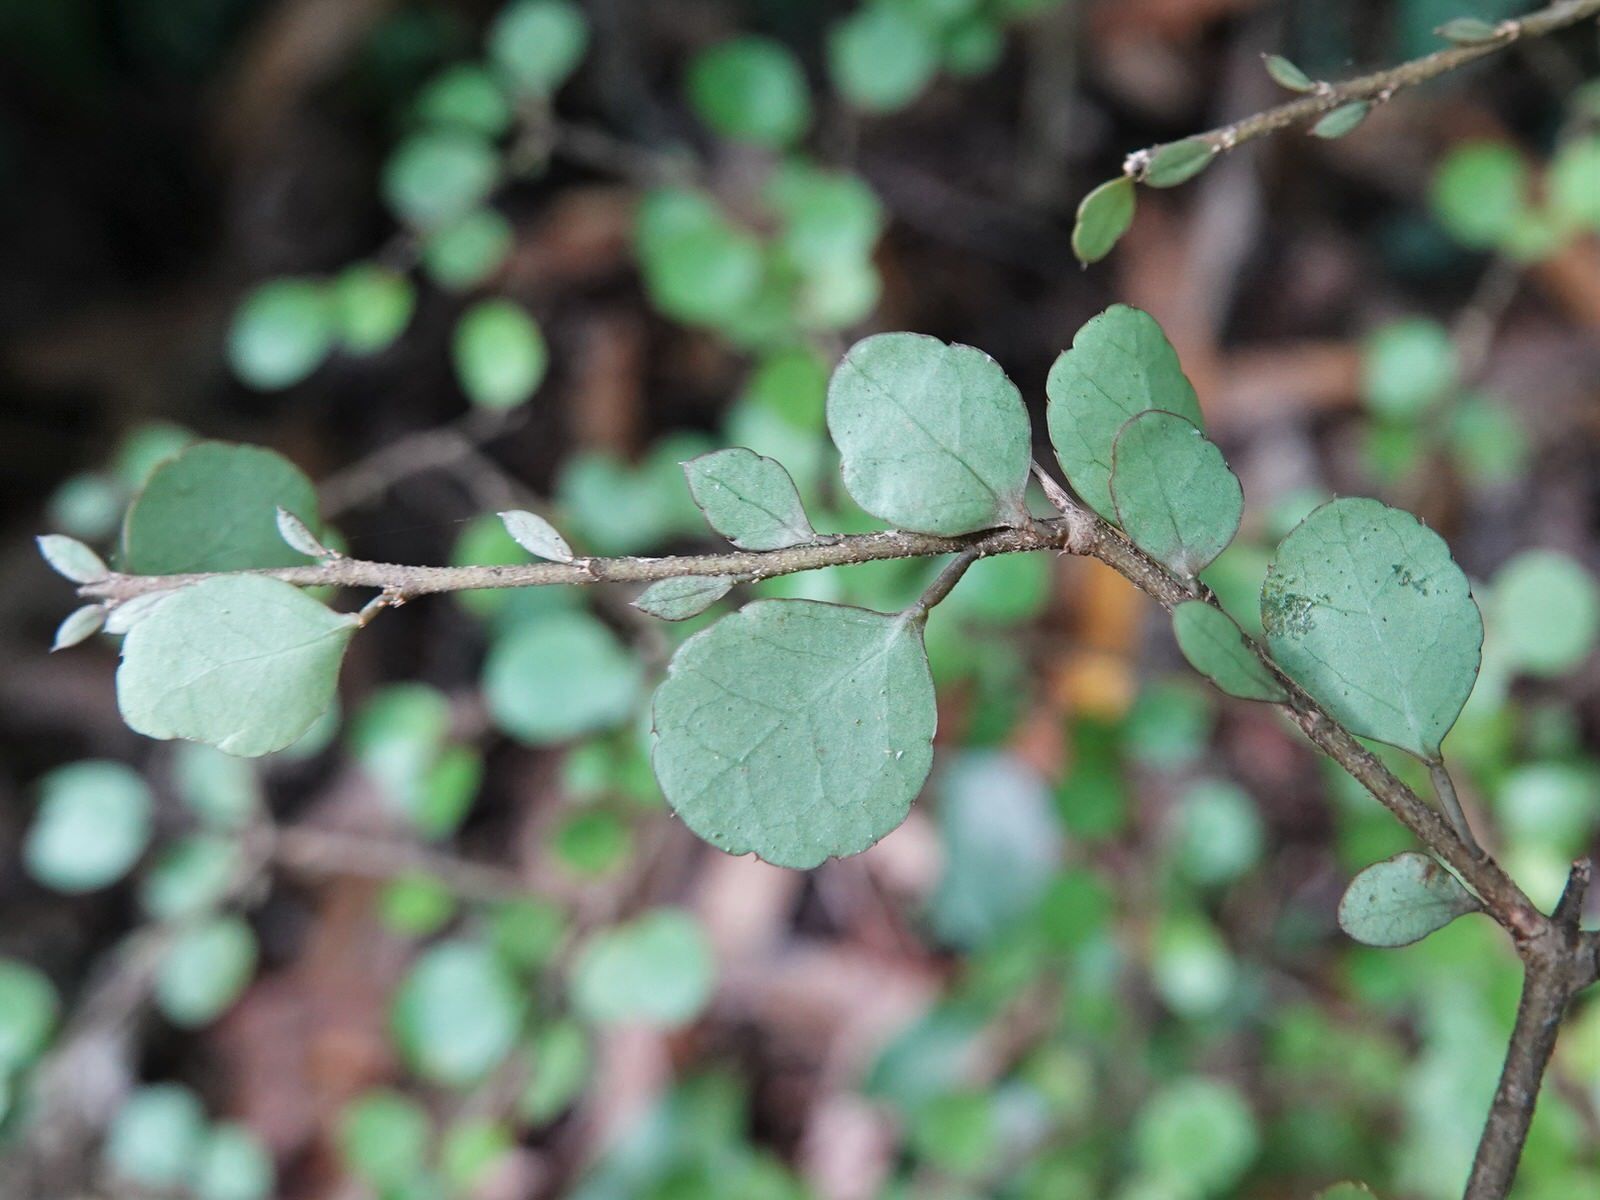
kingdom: Plantae
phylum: Tracheophyta
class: Magnoliopsida
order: Apiales
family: Araliaceae
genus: Raukaua
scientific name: Raukaua anomalus
